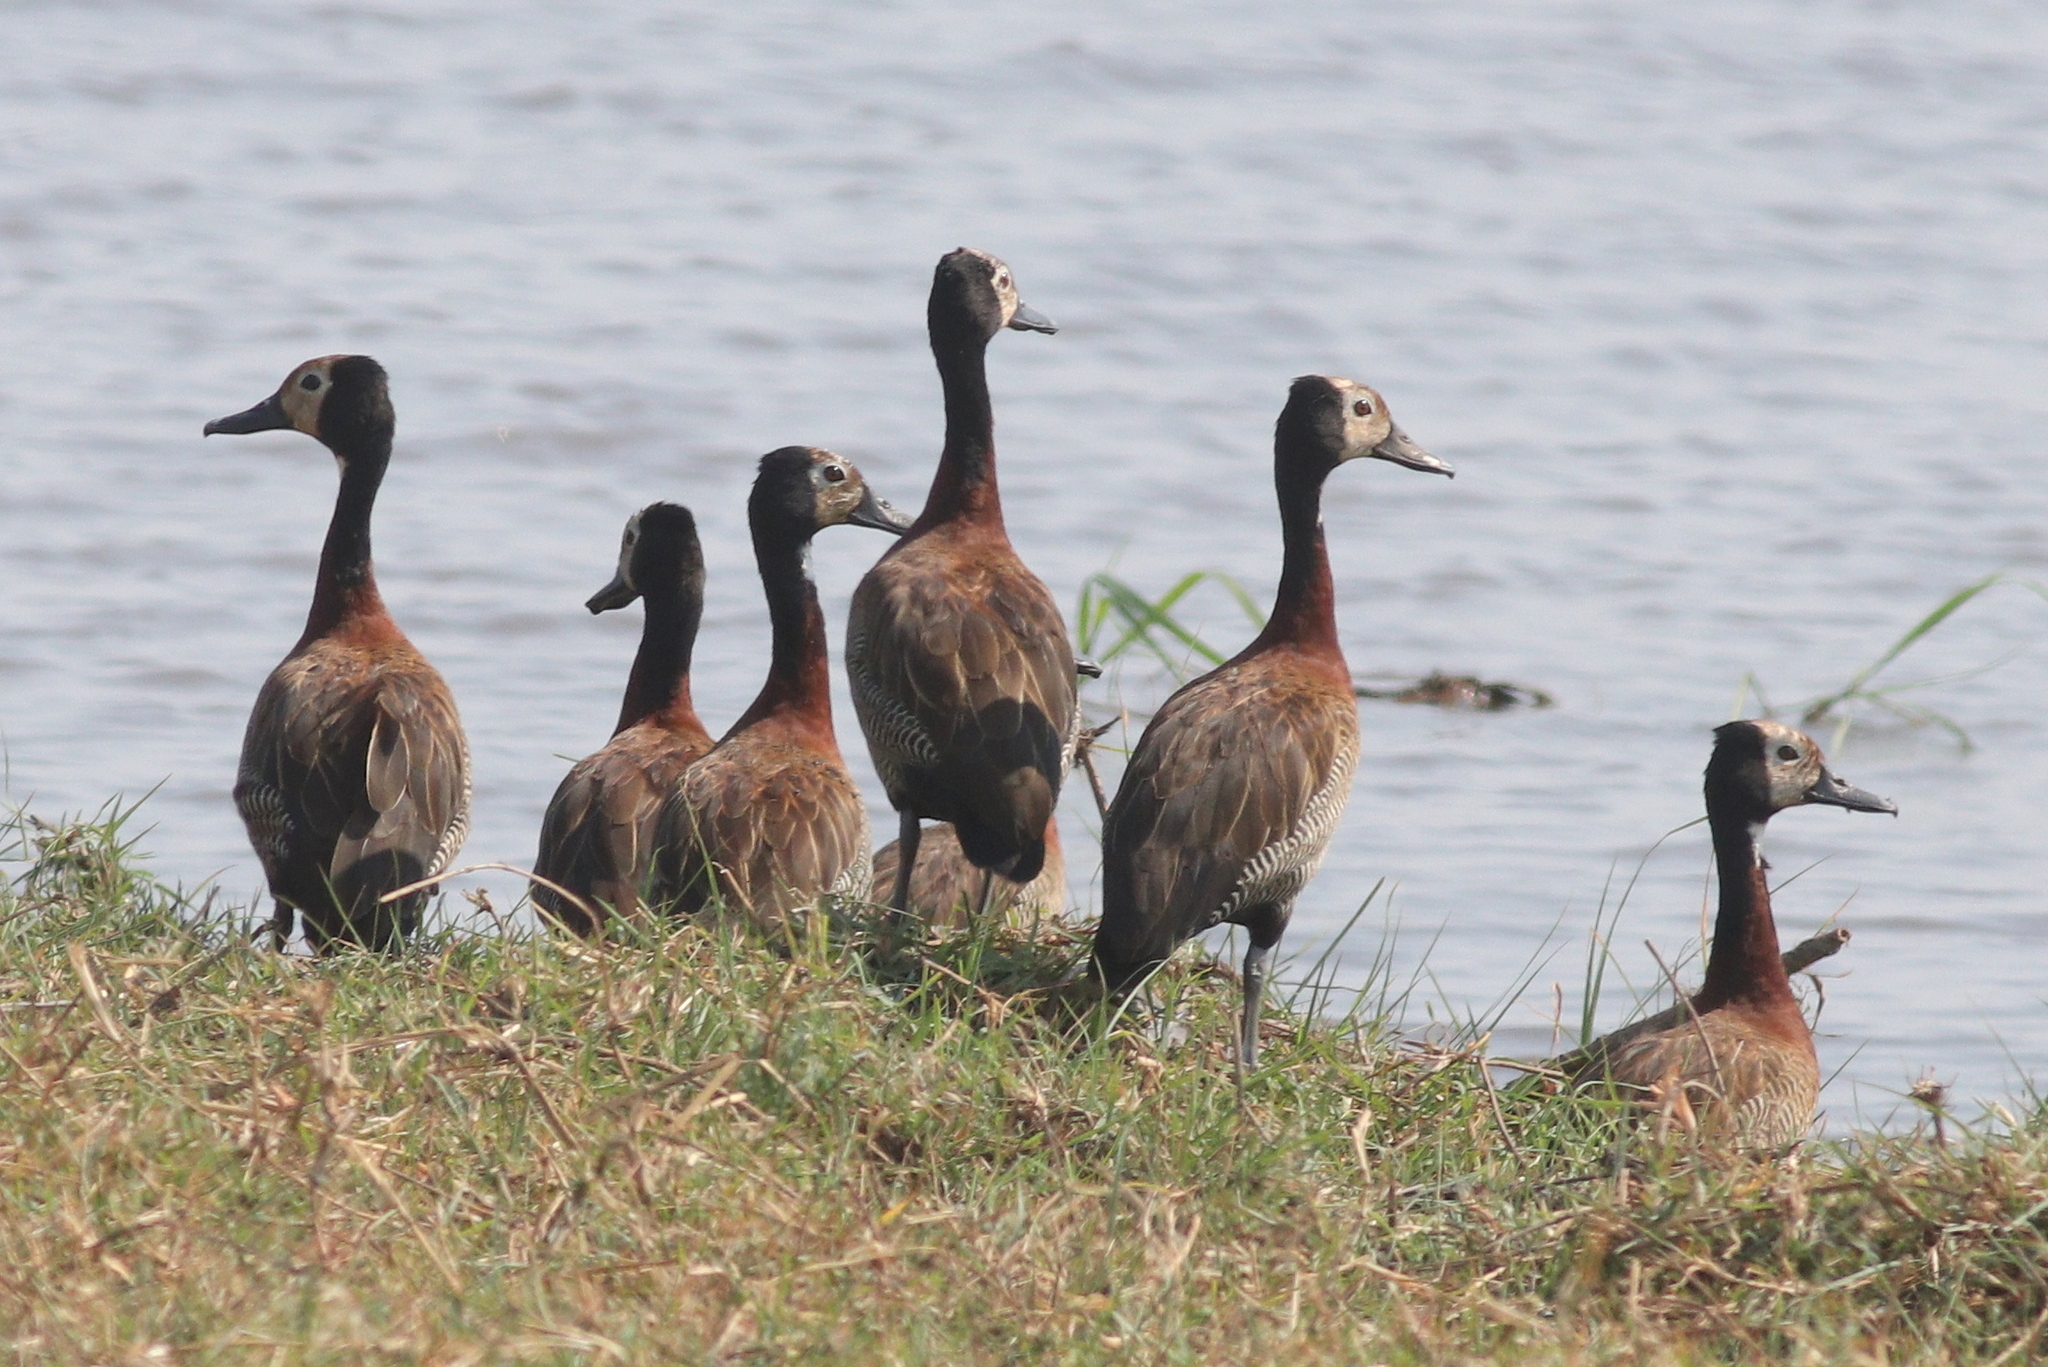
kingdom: Animalia
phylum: Chordata
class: Aves
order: Anseriformes
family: Anatidae
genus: Dendrocygna
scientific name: Dendrocygna viduata
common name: White-faced whistling duck
